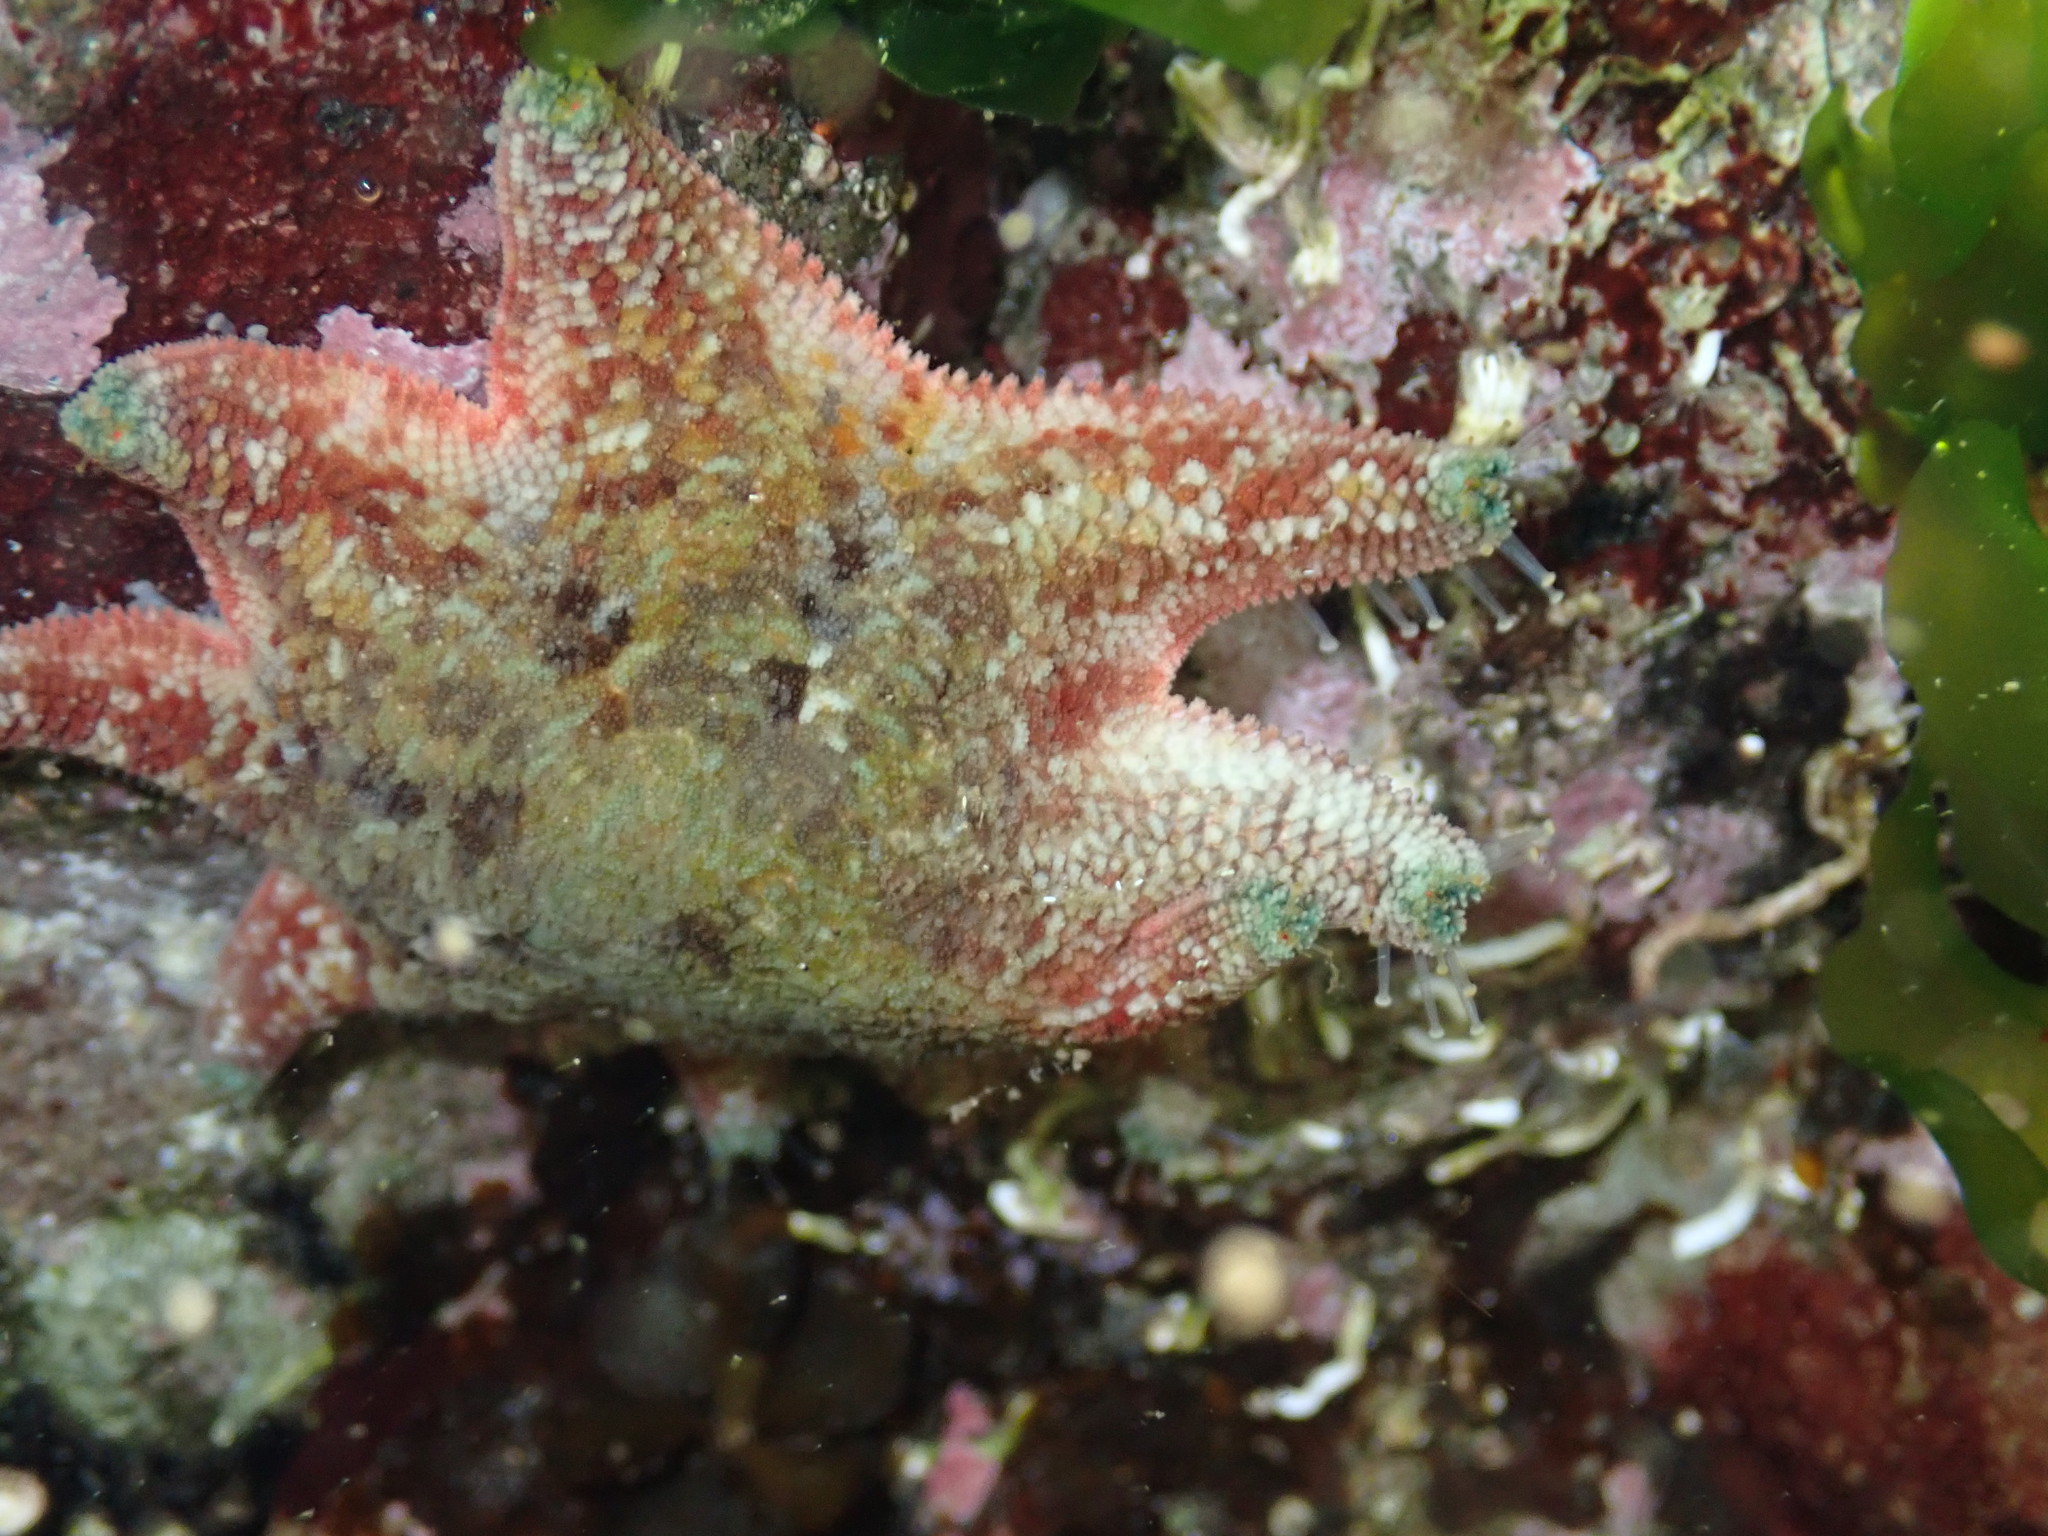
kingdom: Animalia
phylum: Echinodermata
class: Asteroidea
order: Valvatida
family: Asterinidae
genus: Meridiastra
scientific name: Meridiastra calcar
